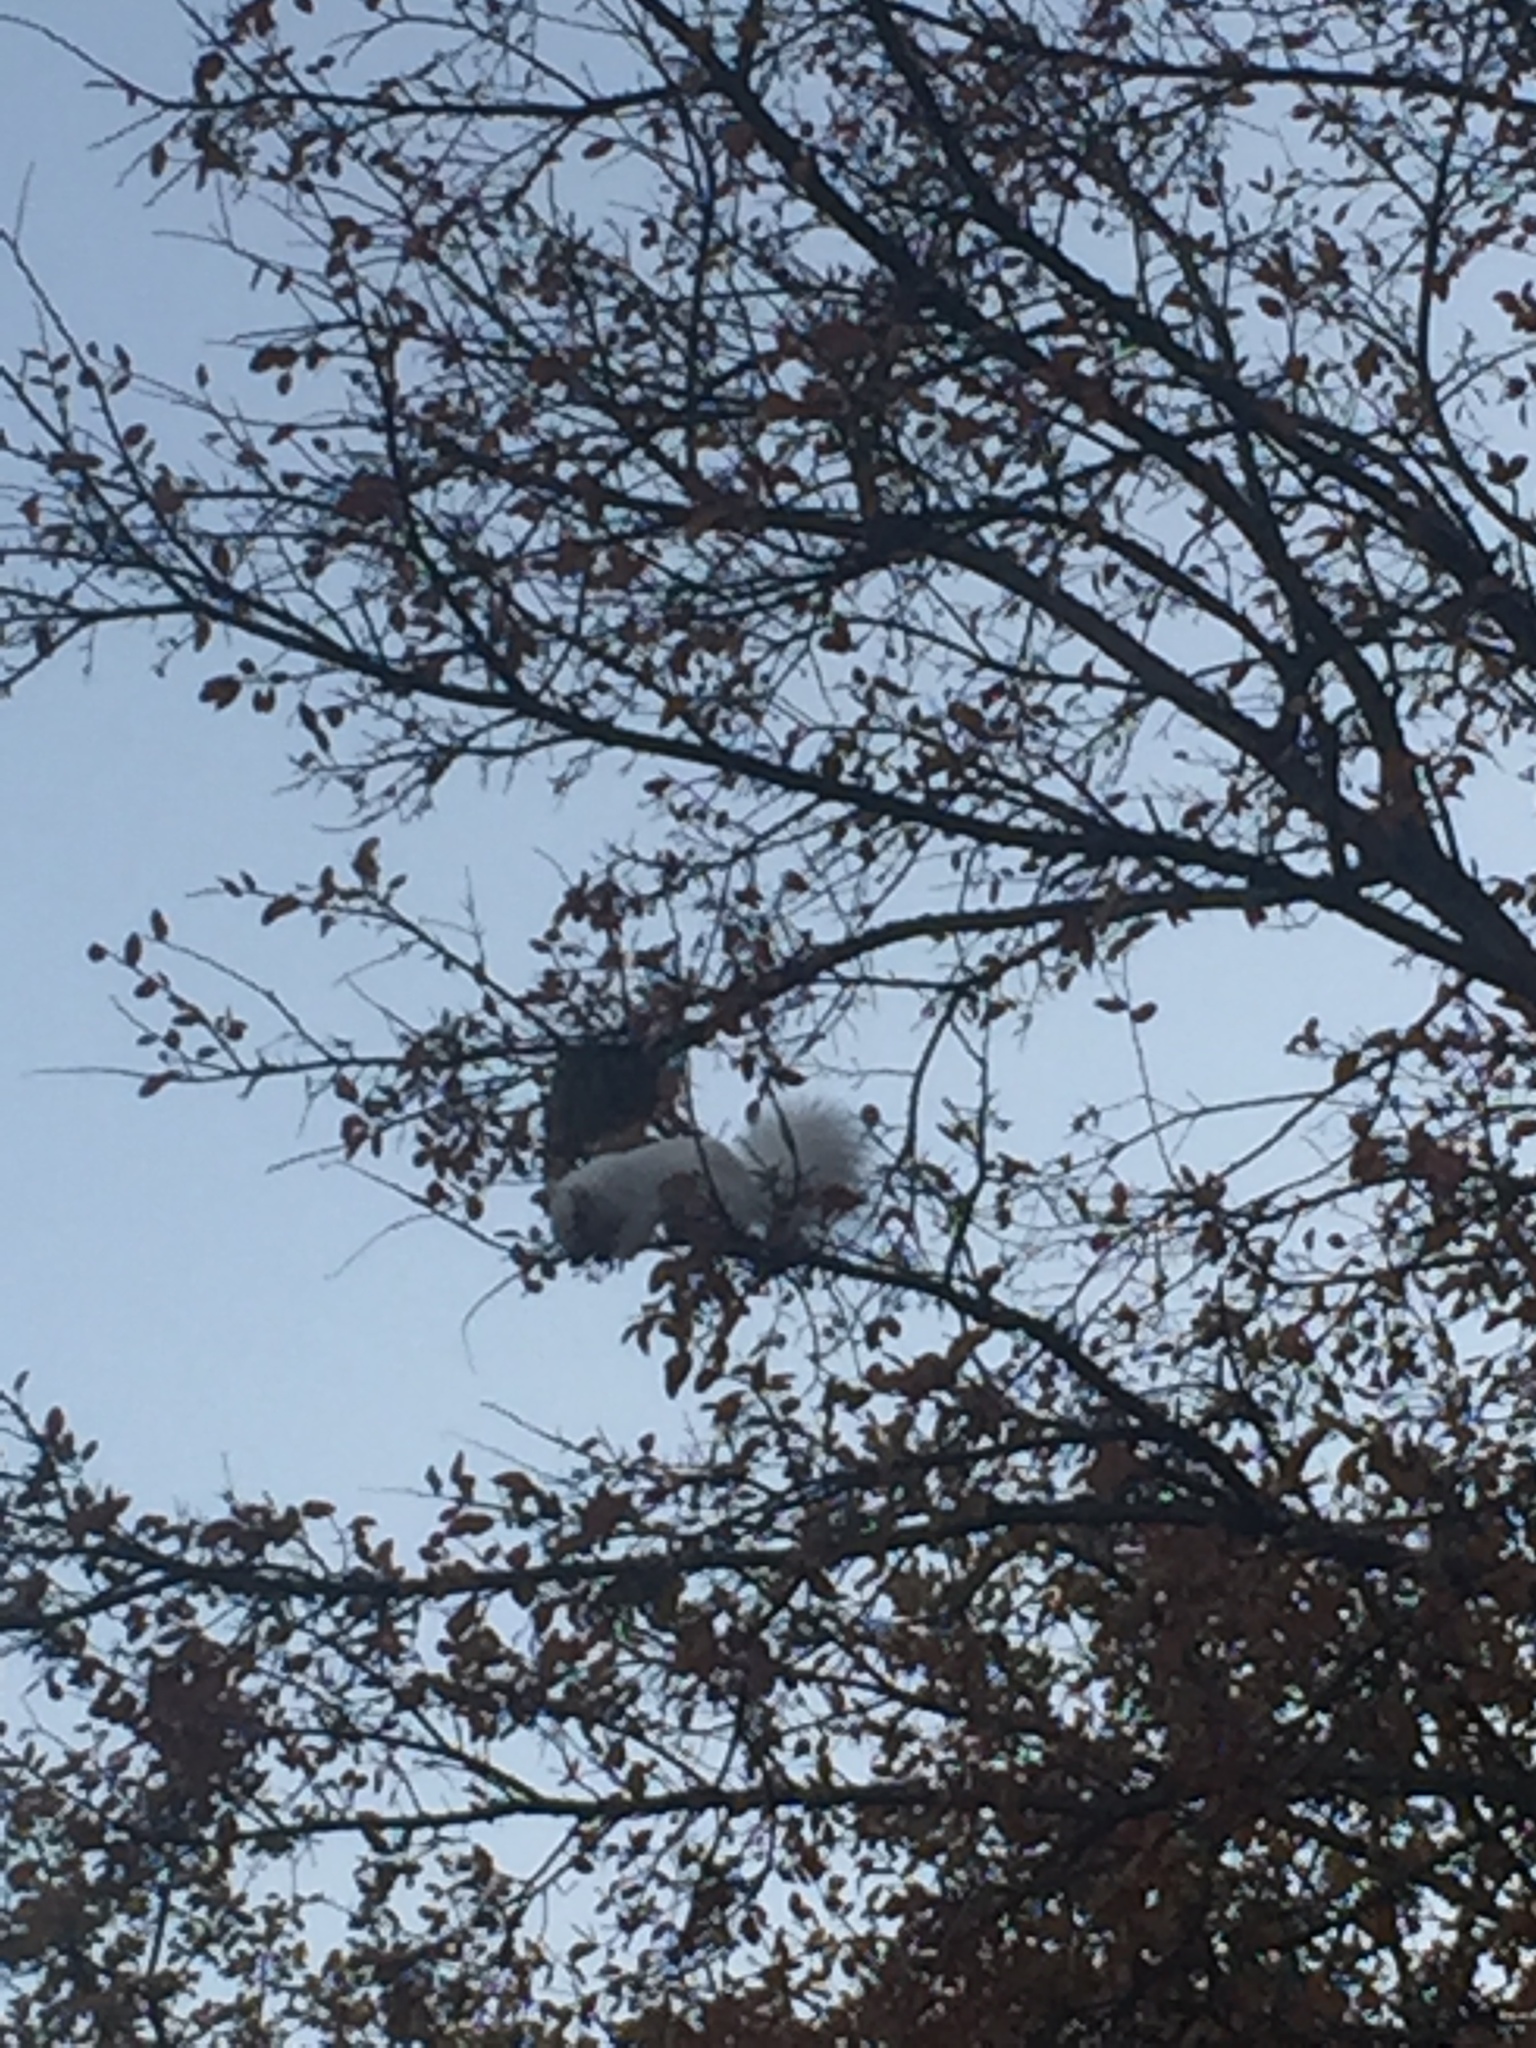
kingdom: Animalia
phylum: Chordata
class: Mammalia
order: Rodentia
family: Sciuridae
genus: Sciurus
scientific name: Sciurus niger
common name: Fox squirrel
